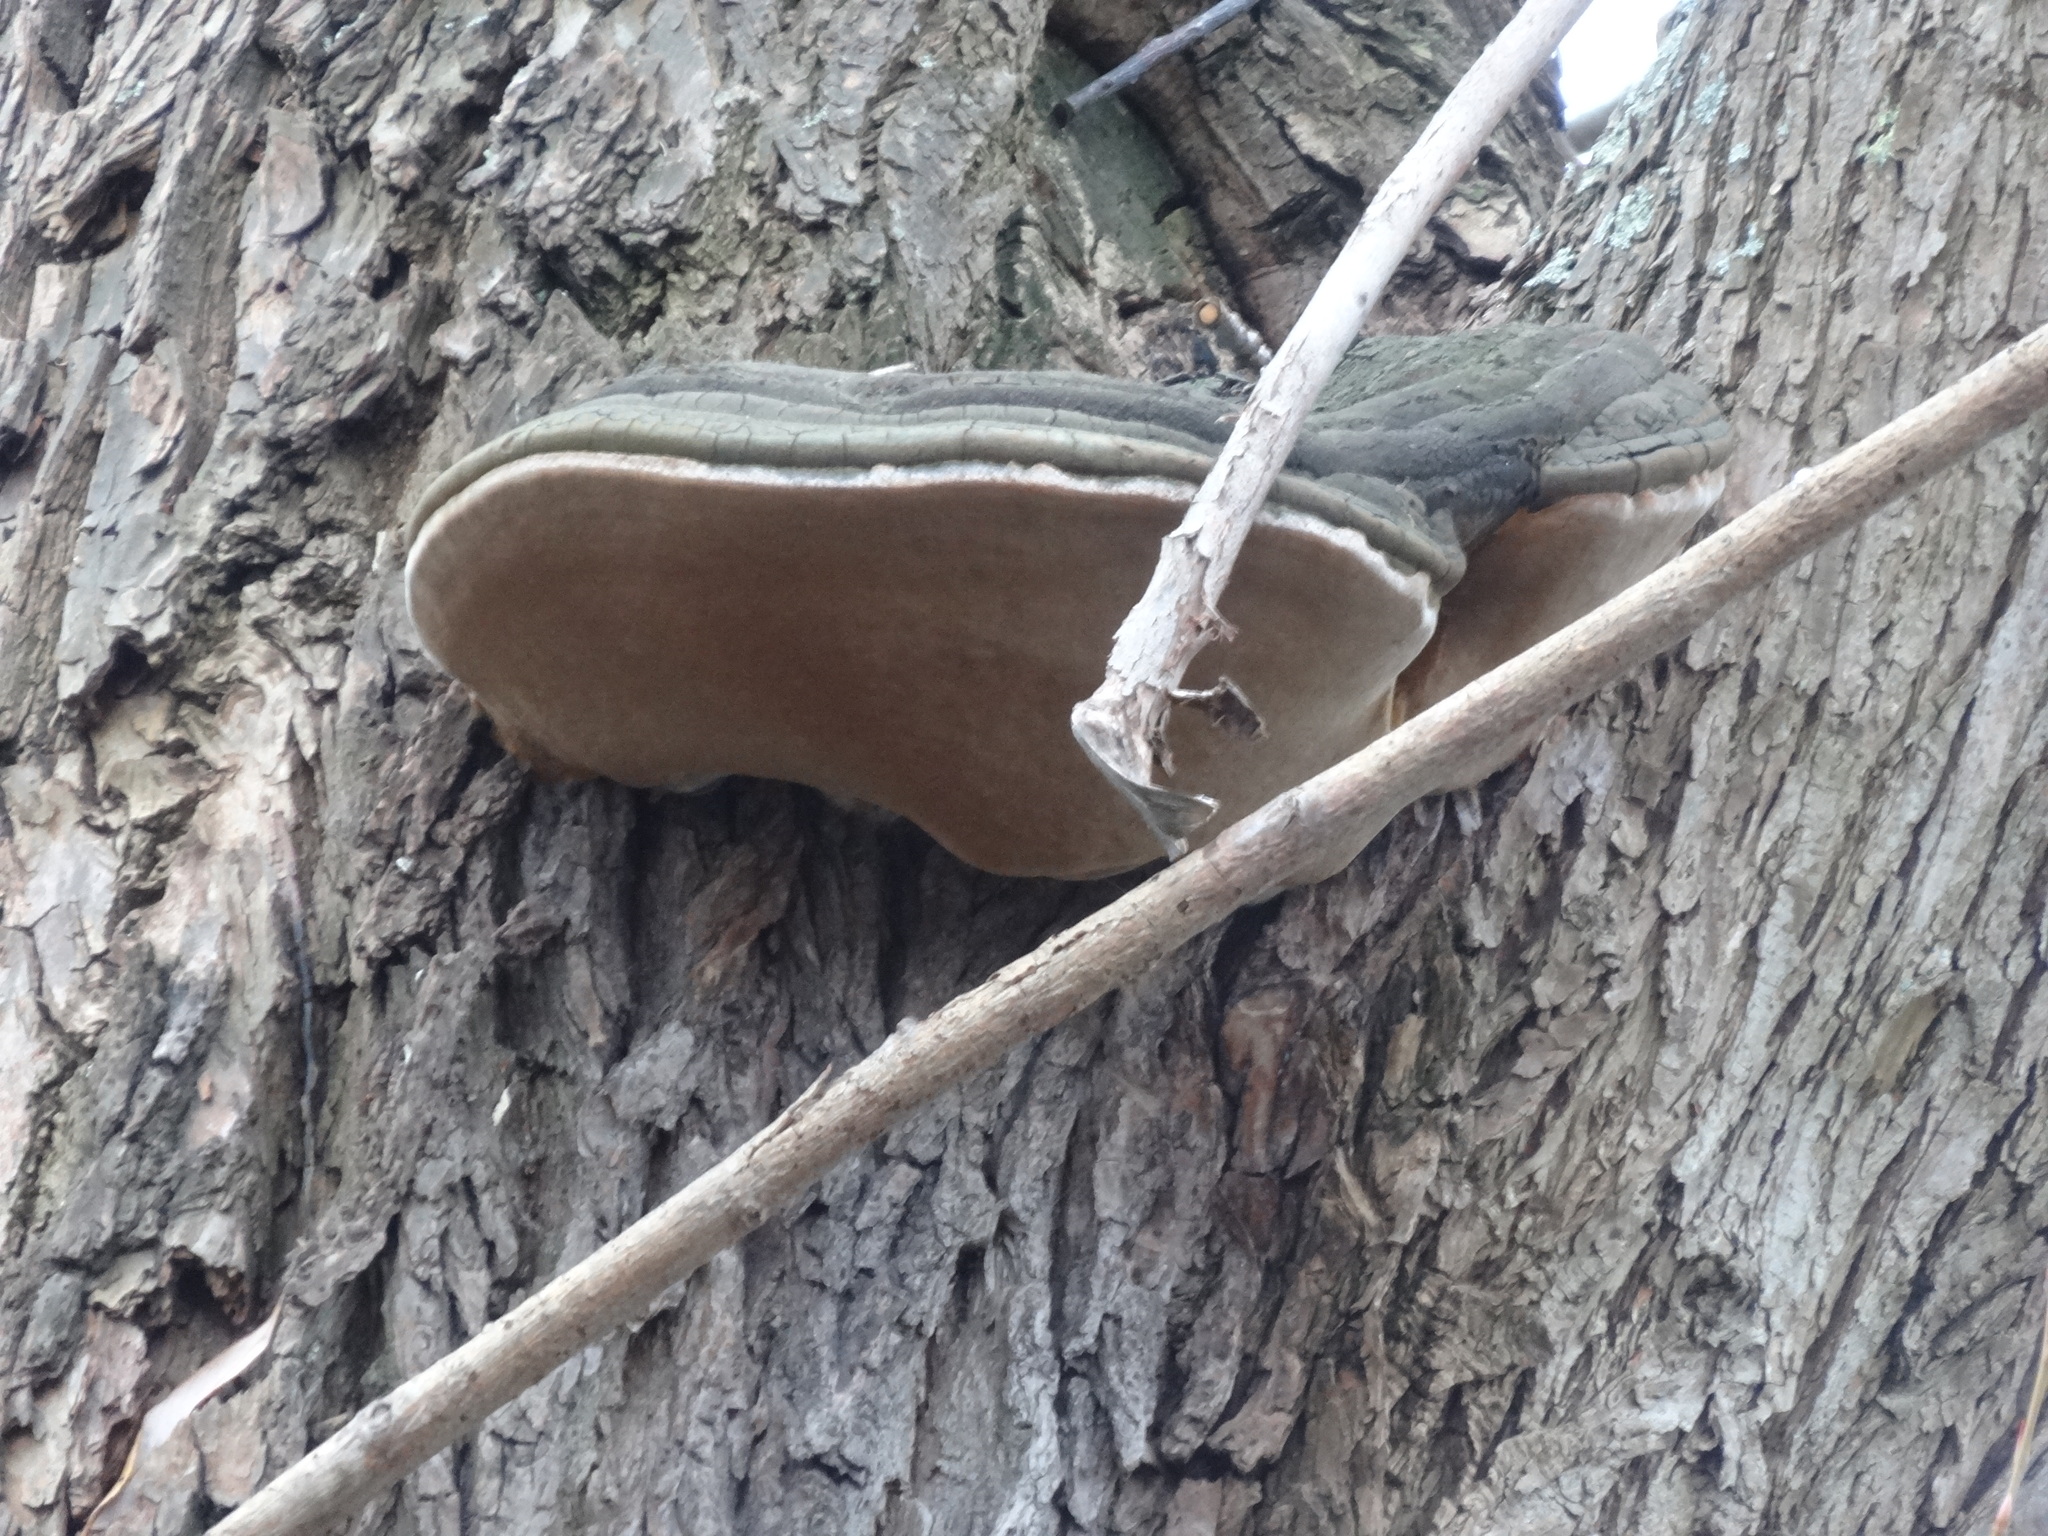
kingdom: Fungi
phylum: Basidiomycota
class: Agaricomycetes
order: Hymenochaetales
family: Hymenochaetaceae
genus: Phellinus
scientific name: Phellinus igniarius
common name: Willow bracket
